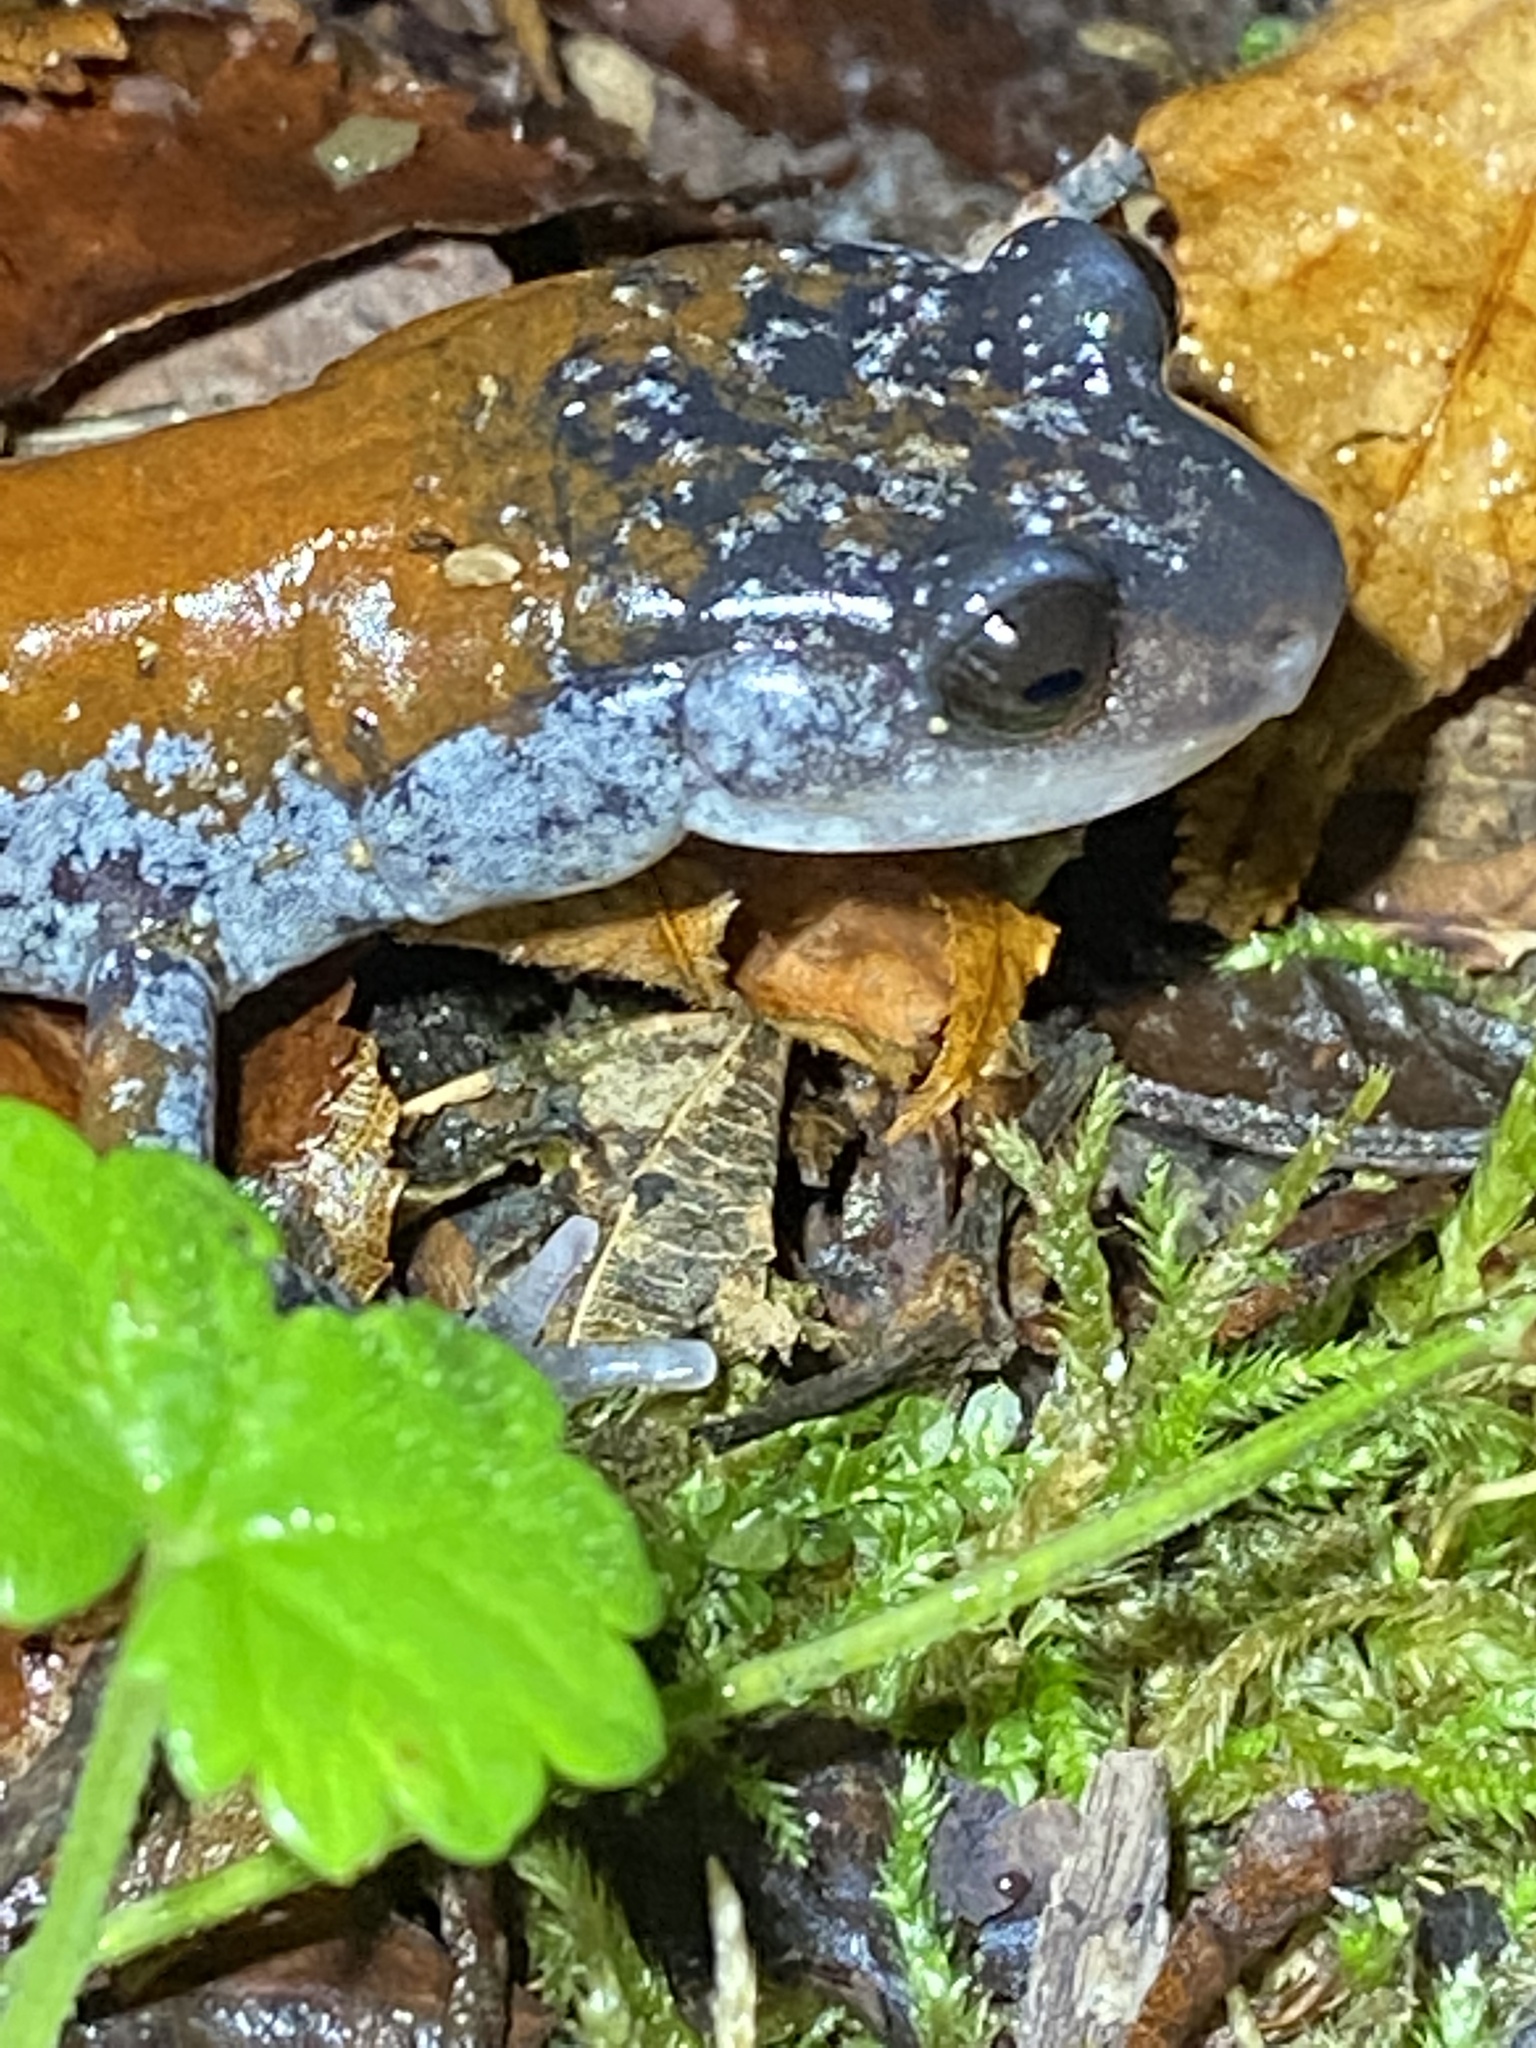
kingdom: Animalia
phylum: Chordata
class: Amphibia
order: Caudata
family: Plethodontidae
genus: Plethodon
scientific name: Plethodon yonahlossee
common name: Yonahlossee salamander
